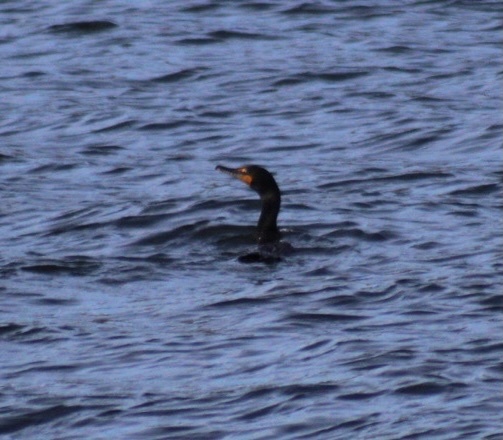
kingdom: Animalia
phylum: Chordata
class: Aves
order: Suliformes
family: Phalacrocoracidae
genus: Phalacrocorax
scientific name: Phalacrocorax auritus
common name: Double-crested cormorant
